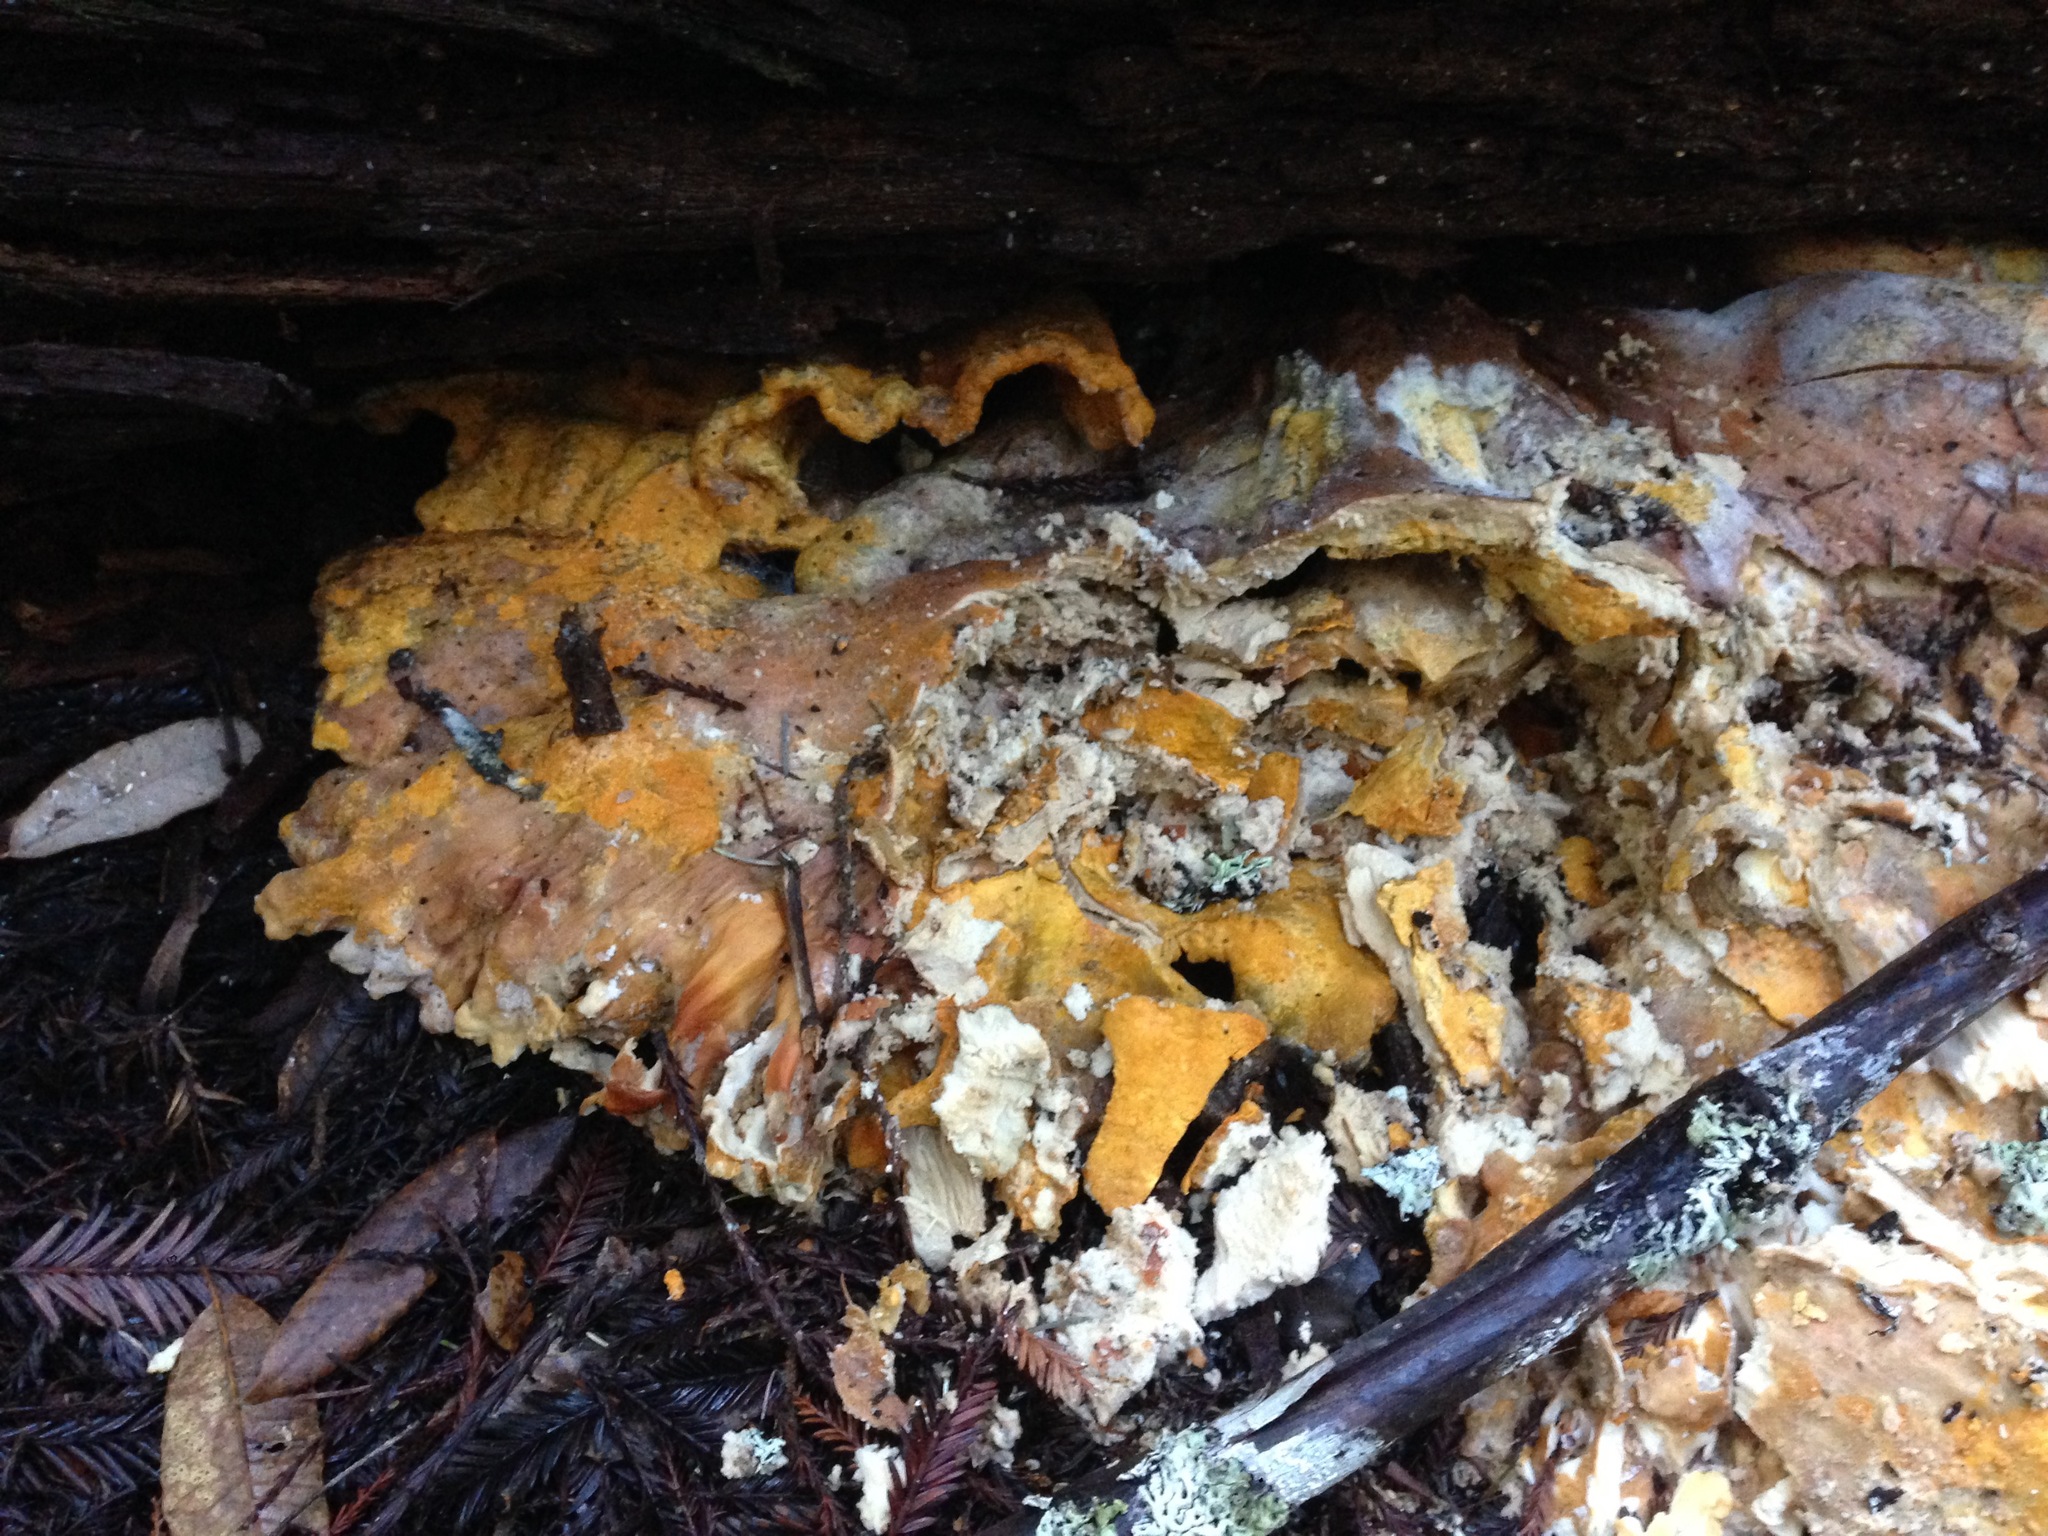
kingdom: Fungi
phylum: Basidiomycota
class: Agaricomycetes
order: Polyporales
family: Laetiporaceae
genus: Laetiporus
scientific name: Laetiporus conifericola
